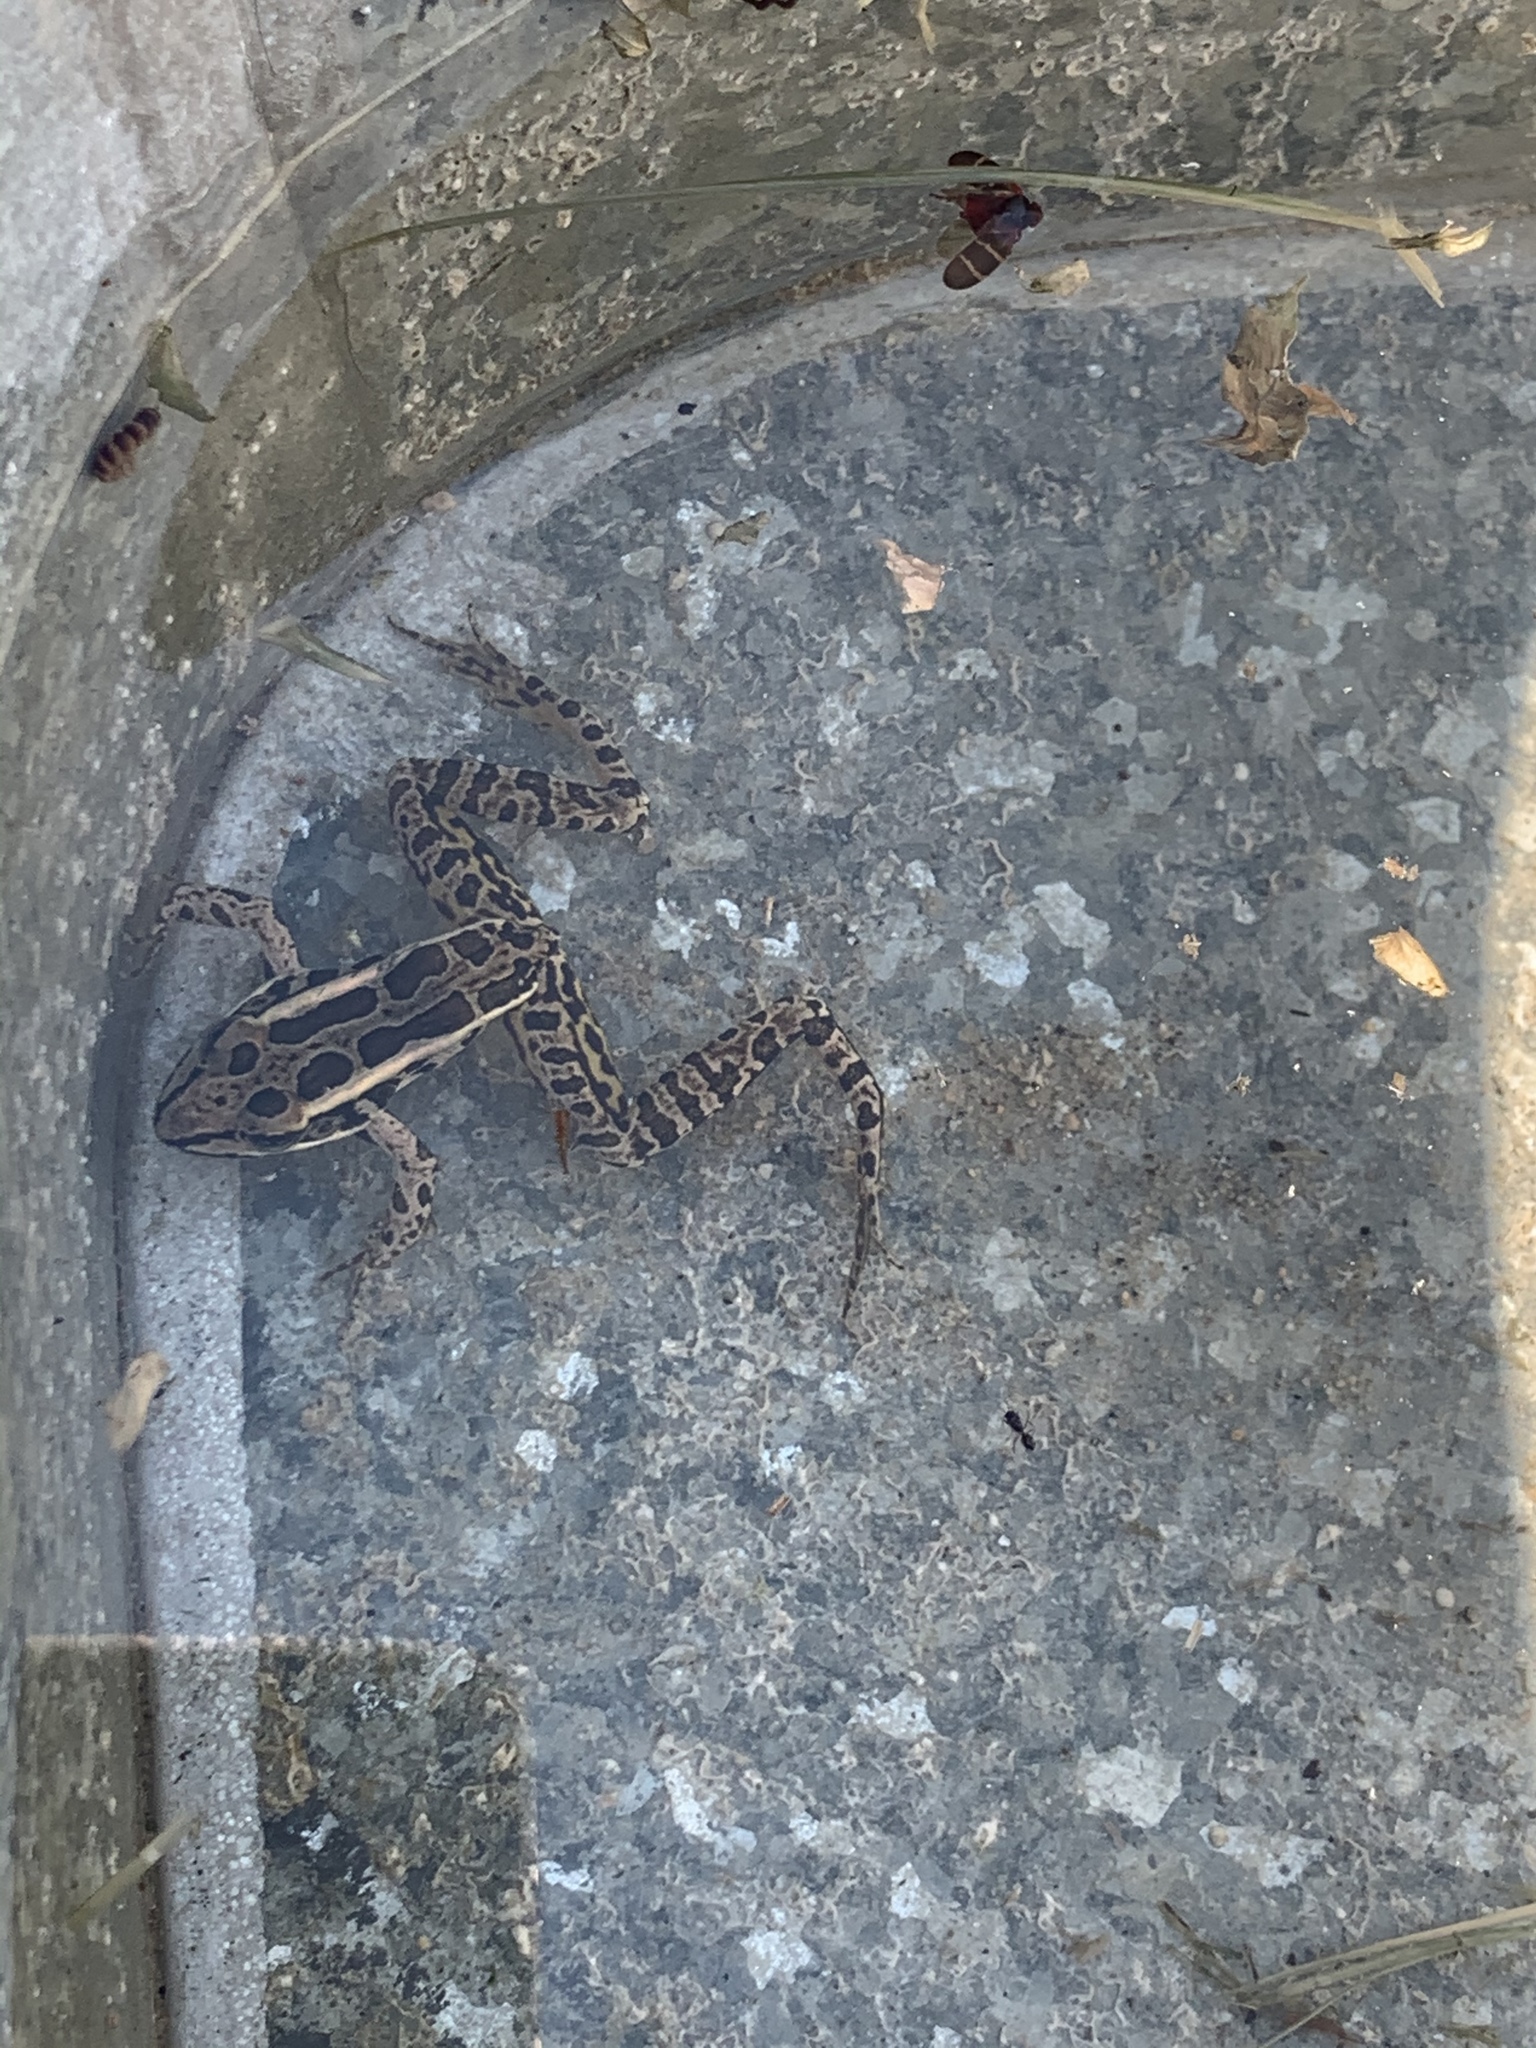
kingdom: Animalia
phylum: Chordata
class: Amphibia
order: Anura
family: Ranidae
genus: Lithobates
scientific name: Lithobates palustris
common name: Pickerel frog
